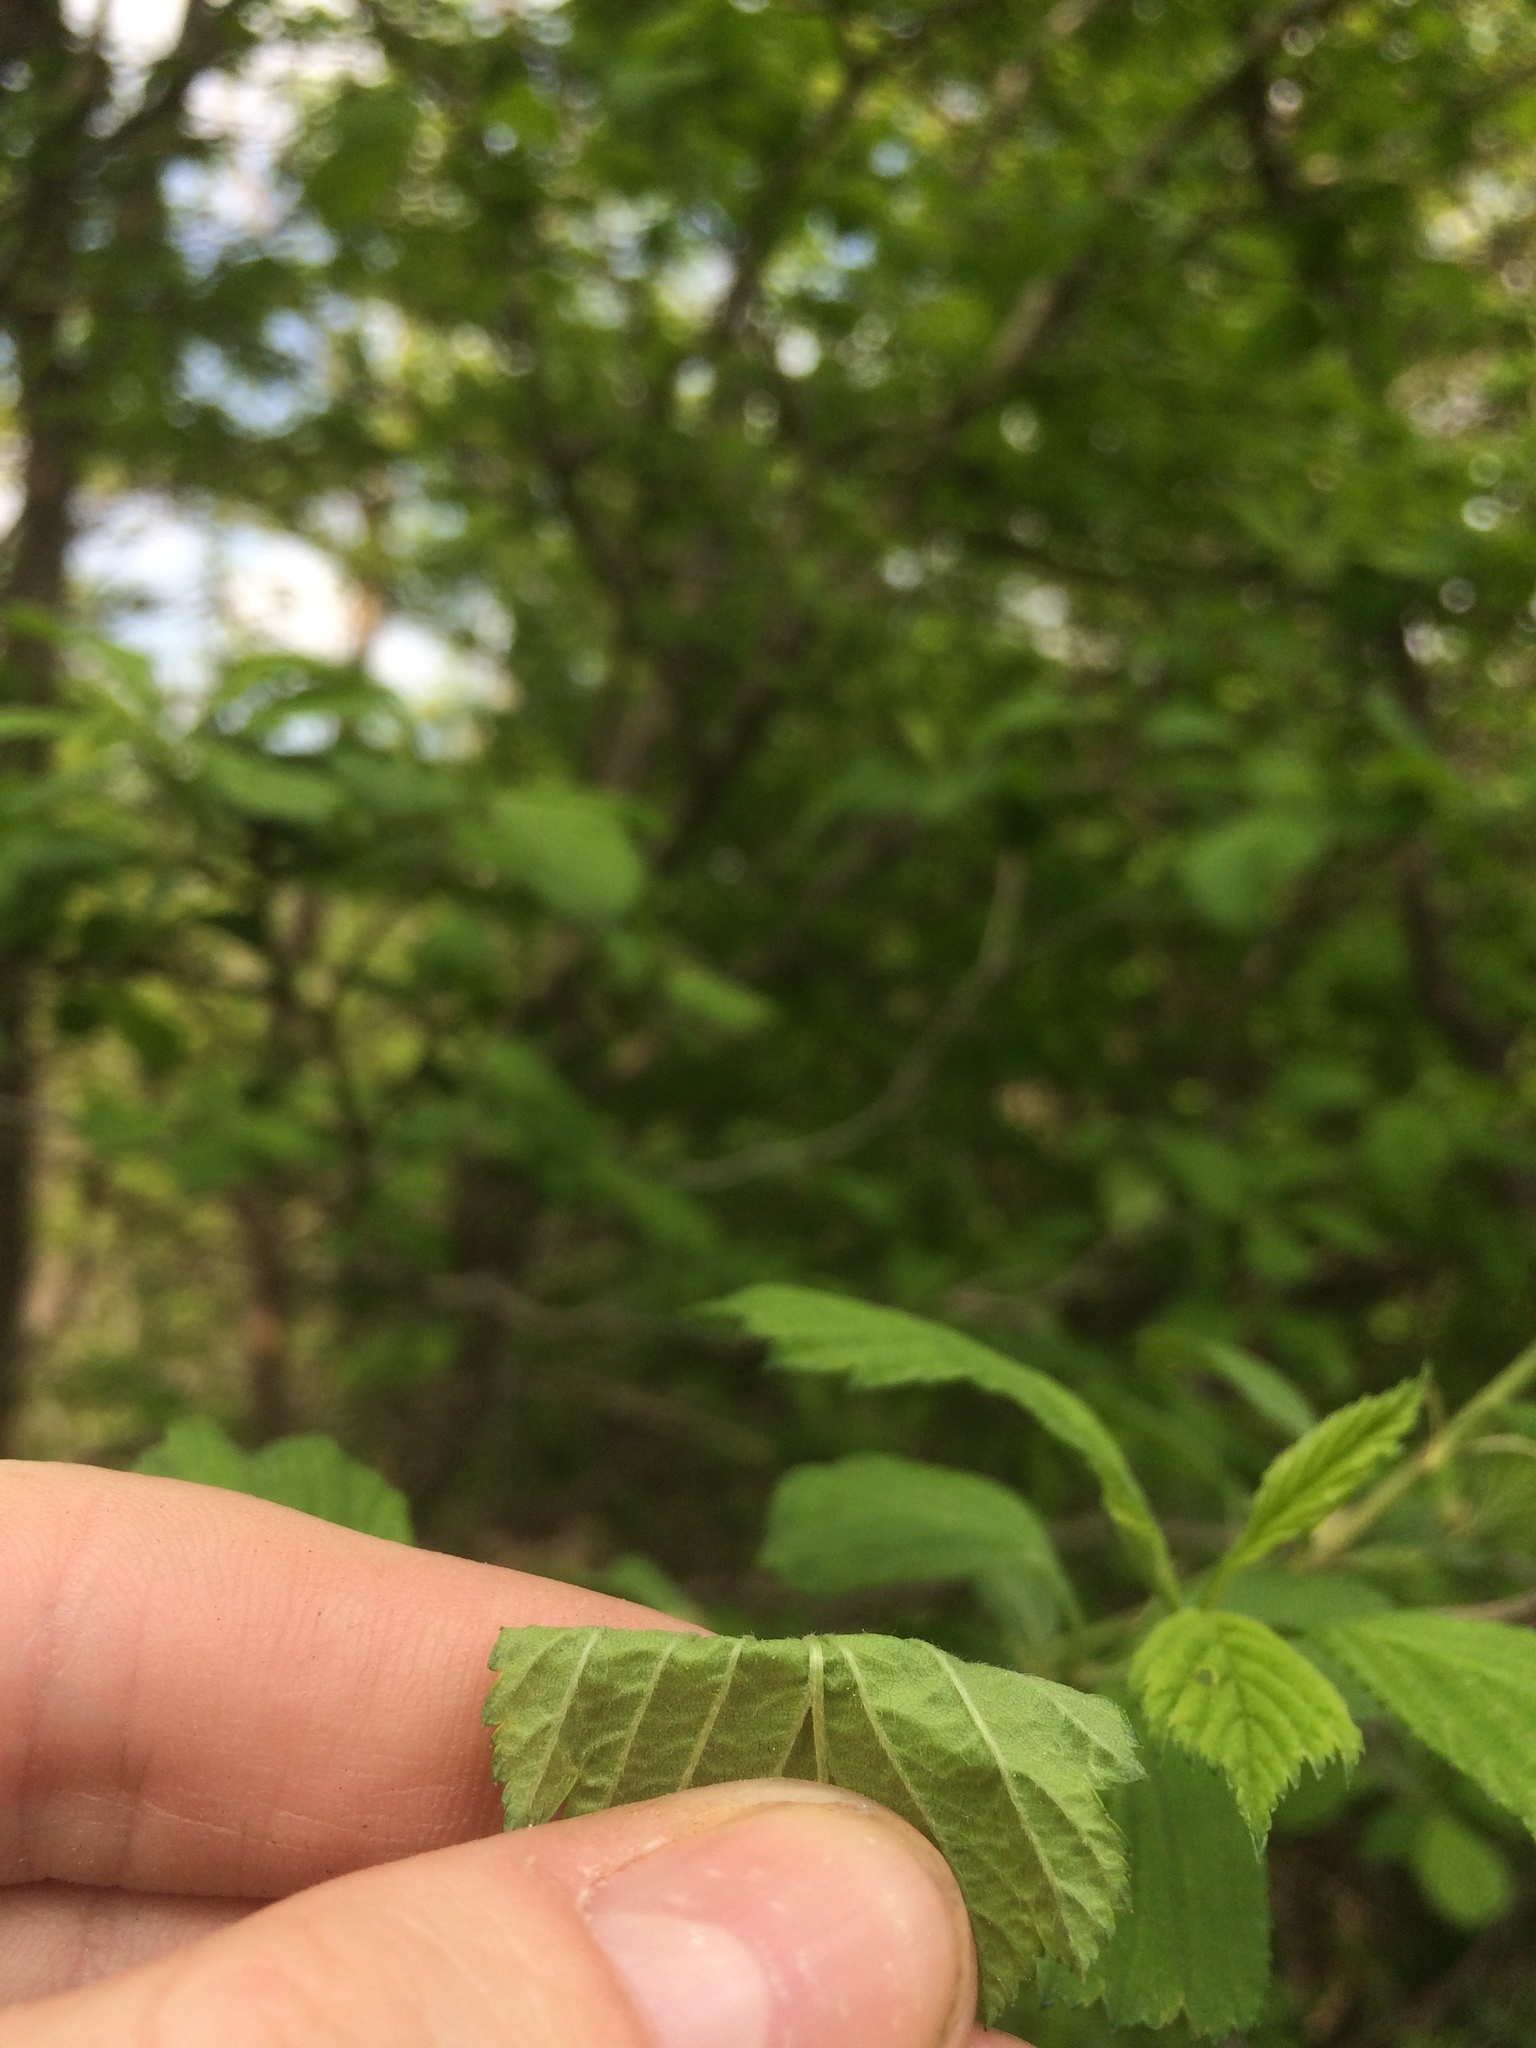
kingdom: Plantae
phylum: Tracheophyta
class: Magnoliopsida
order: Rosales
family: Rosaceae
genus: Crataegus
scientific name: Crataegus punctata
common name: Dotted hawthorn
